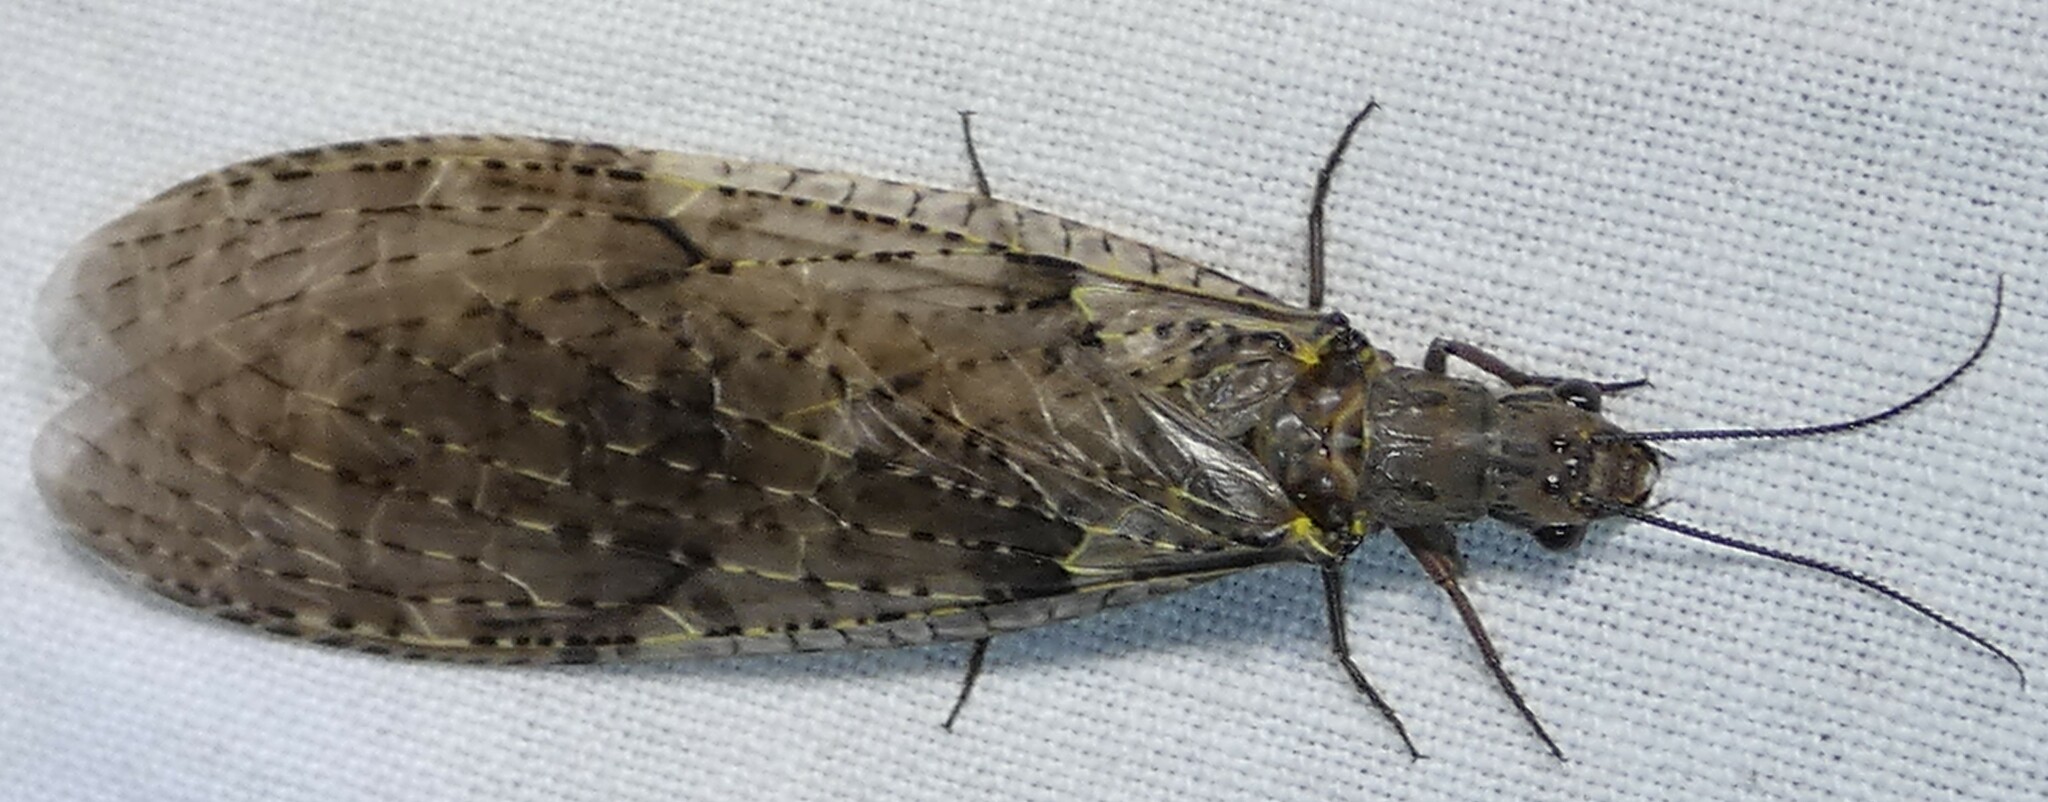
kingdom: Animalia
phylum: Arthropoda
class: Insecta
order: Megaloptera
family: Corydalidae
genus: Chauliodes
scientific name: Chauliodes rastricornis
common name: Spring fishfly
